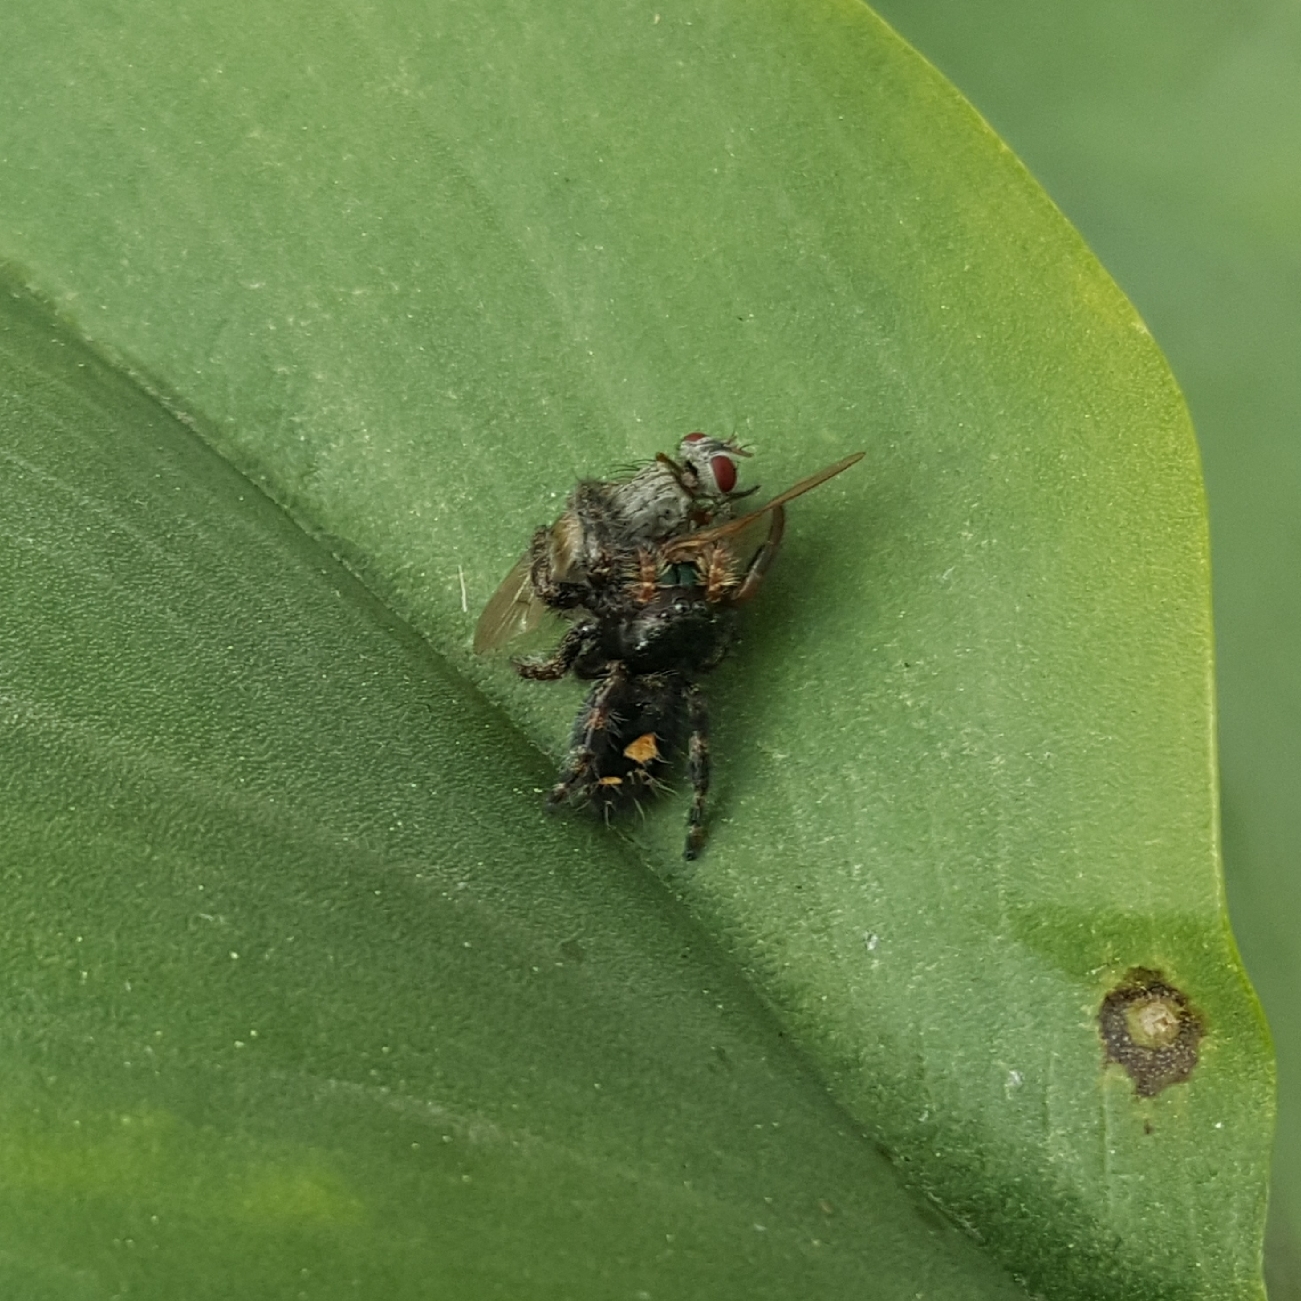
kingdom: Animalia
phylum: Arthropoda
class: Arachnida
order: Araneae
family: Salticidae
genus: Phidippus
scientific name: Phidippus audax
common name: Bold jumper
